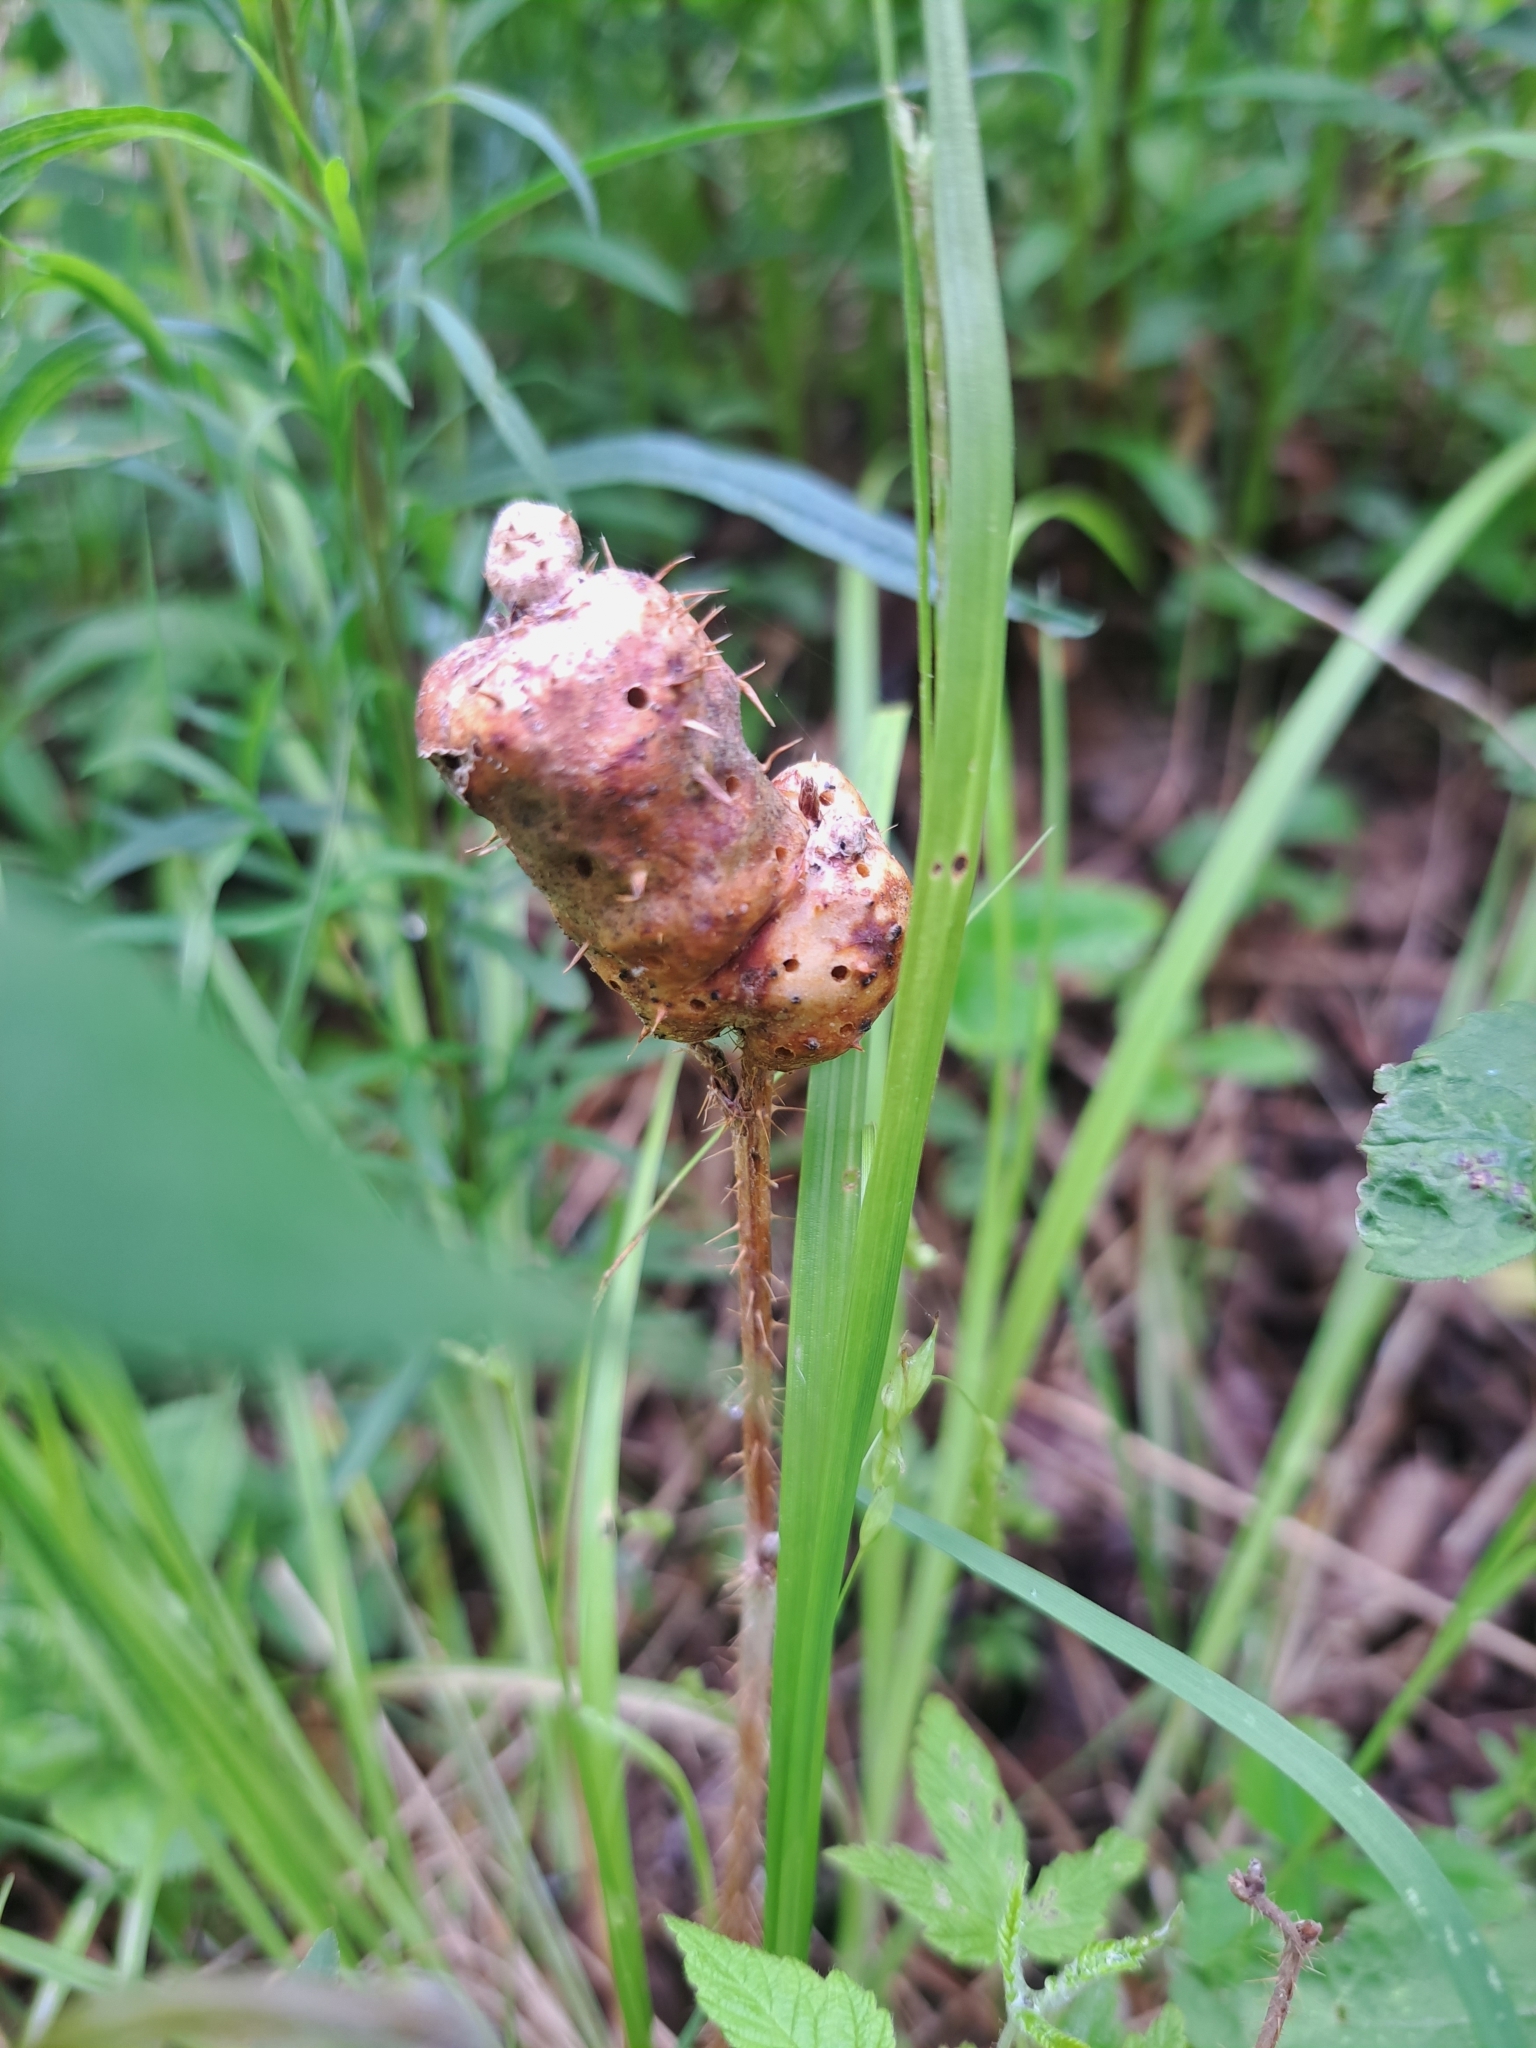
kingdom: Animalia
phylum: Arthropoda
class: Insecta
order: Hymenoptera
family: Cynipidae
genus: Diastrophus
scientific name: Diastrophus turgidus
